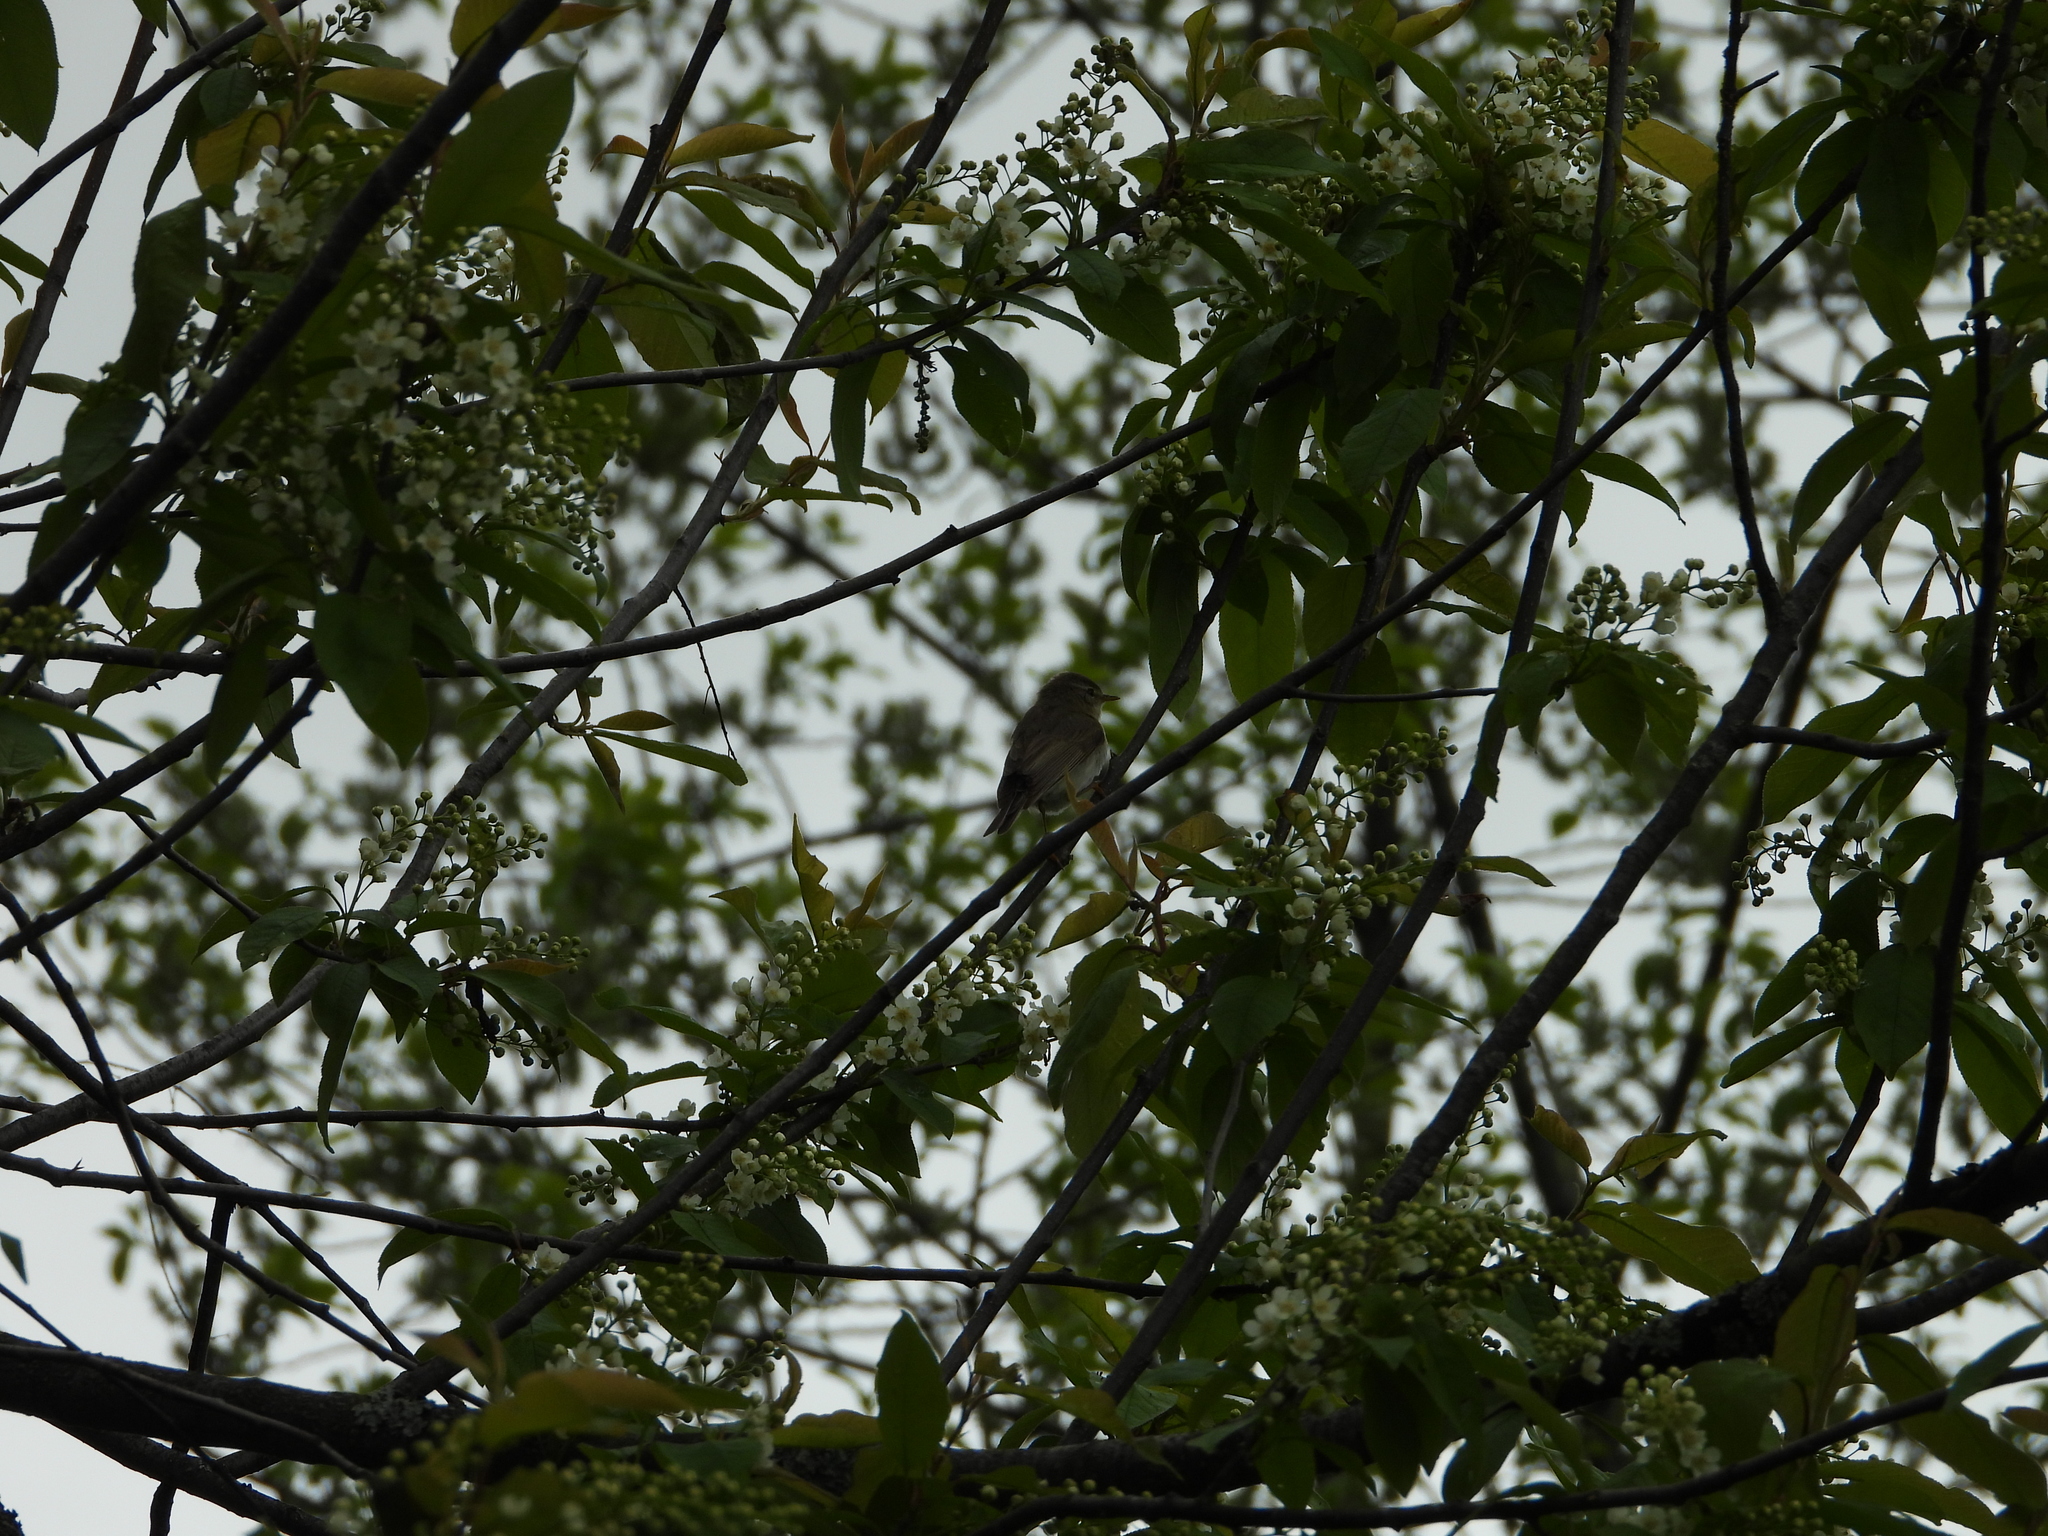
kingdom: Animalia
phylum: Chordata
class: Aves
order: Passeriformes
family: Phylloscopidae
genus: Phylloscopus
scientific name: Phylloscopus trochilus
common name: Willow warbler
